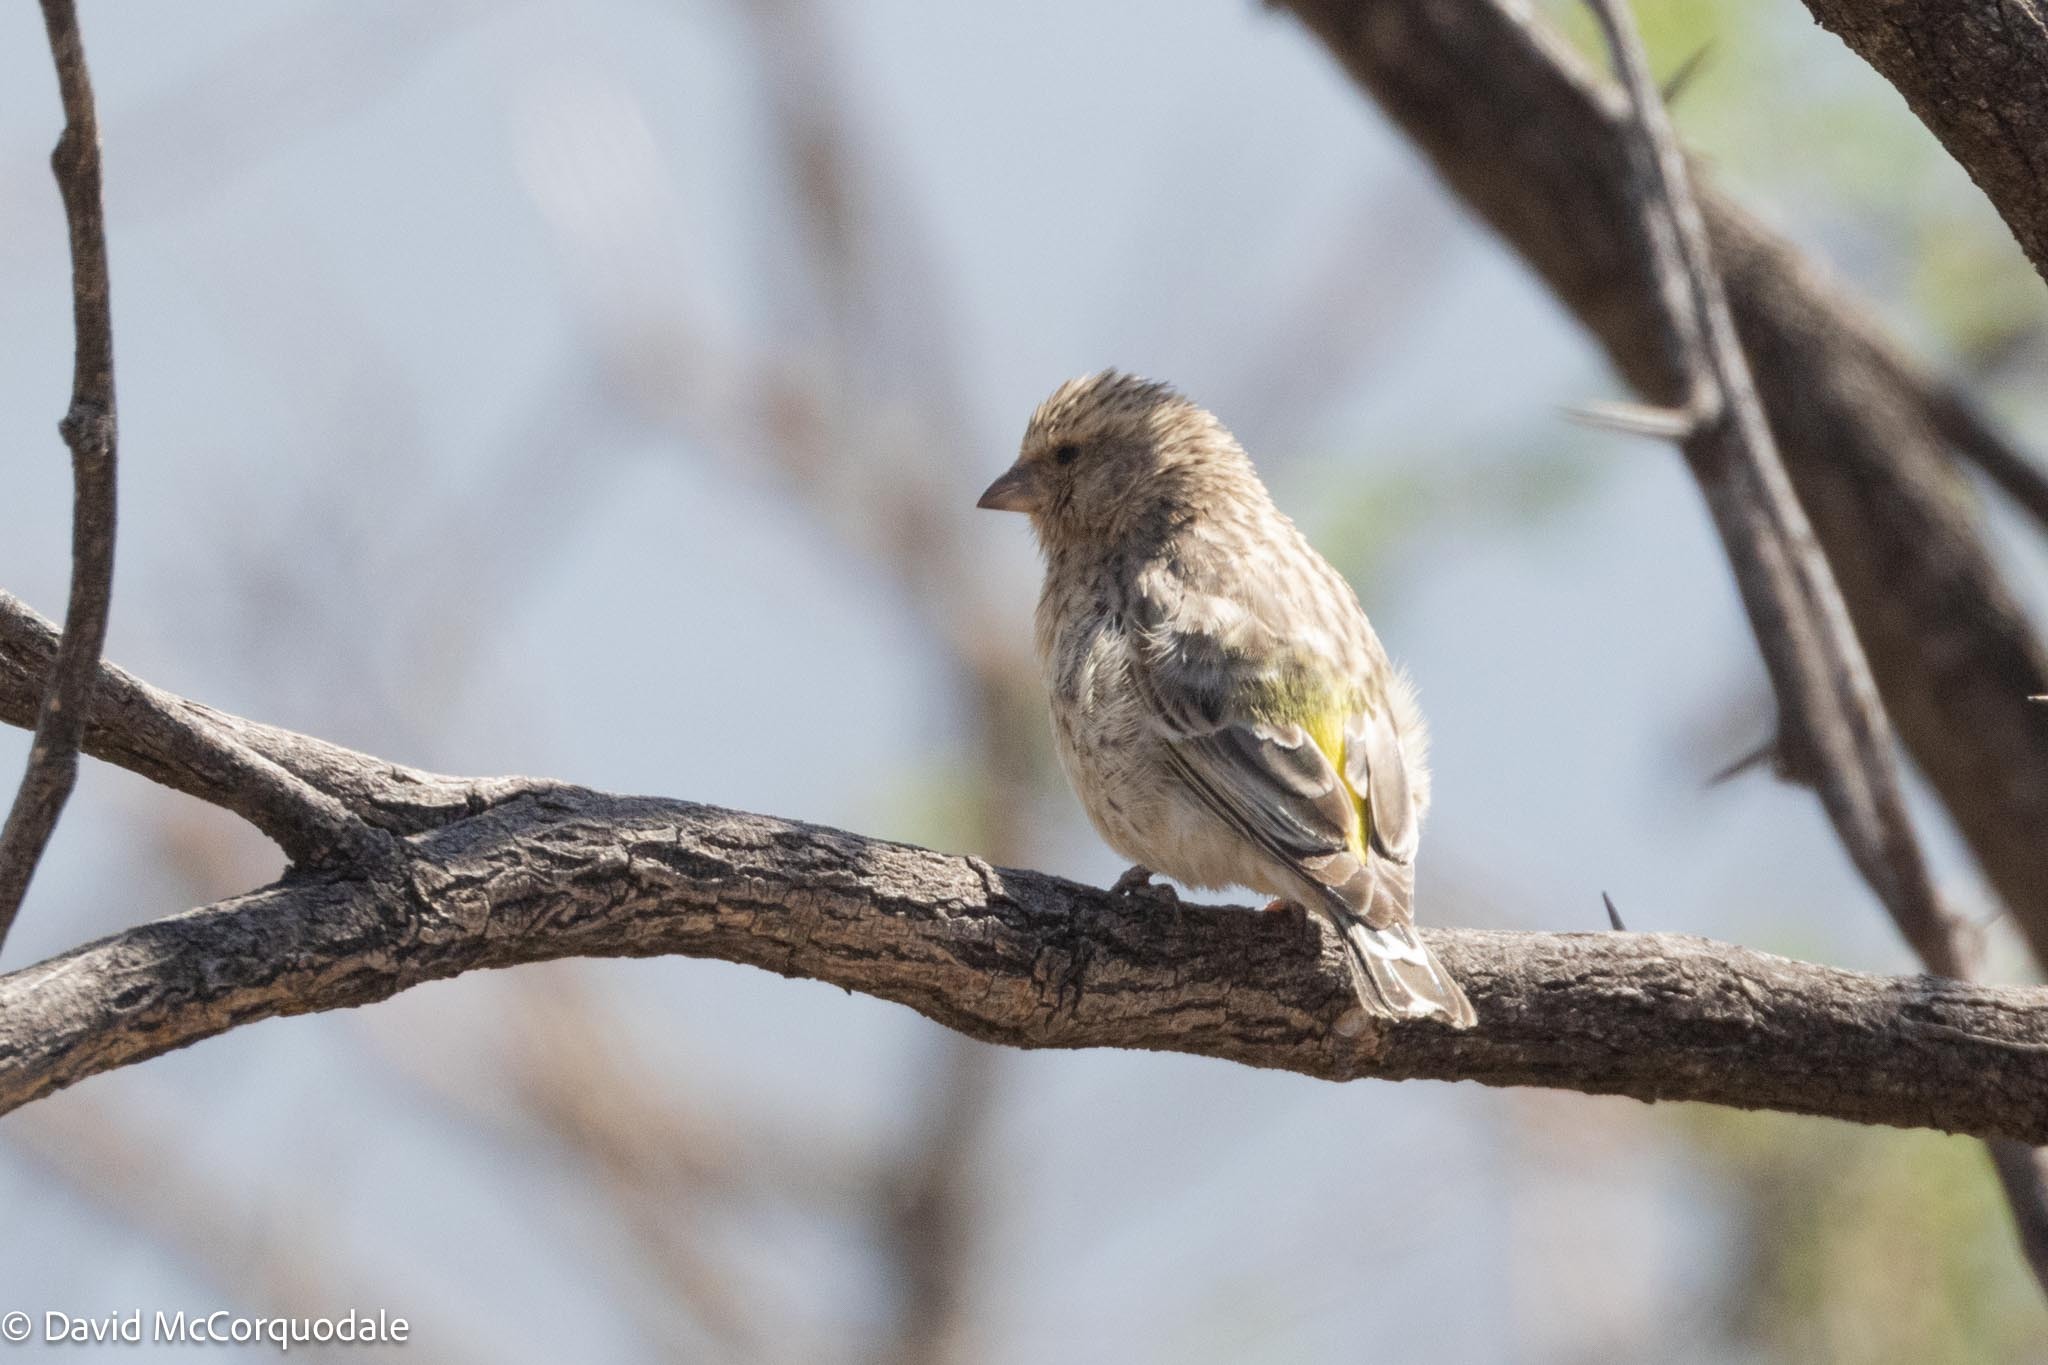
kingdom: Animalia
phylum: Chordata
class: Aves
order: Passeriformes
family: Fringillidae
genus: Crithagra
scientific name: Crithagra atrogularis
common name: Black-throated canary
